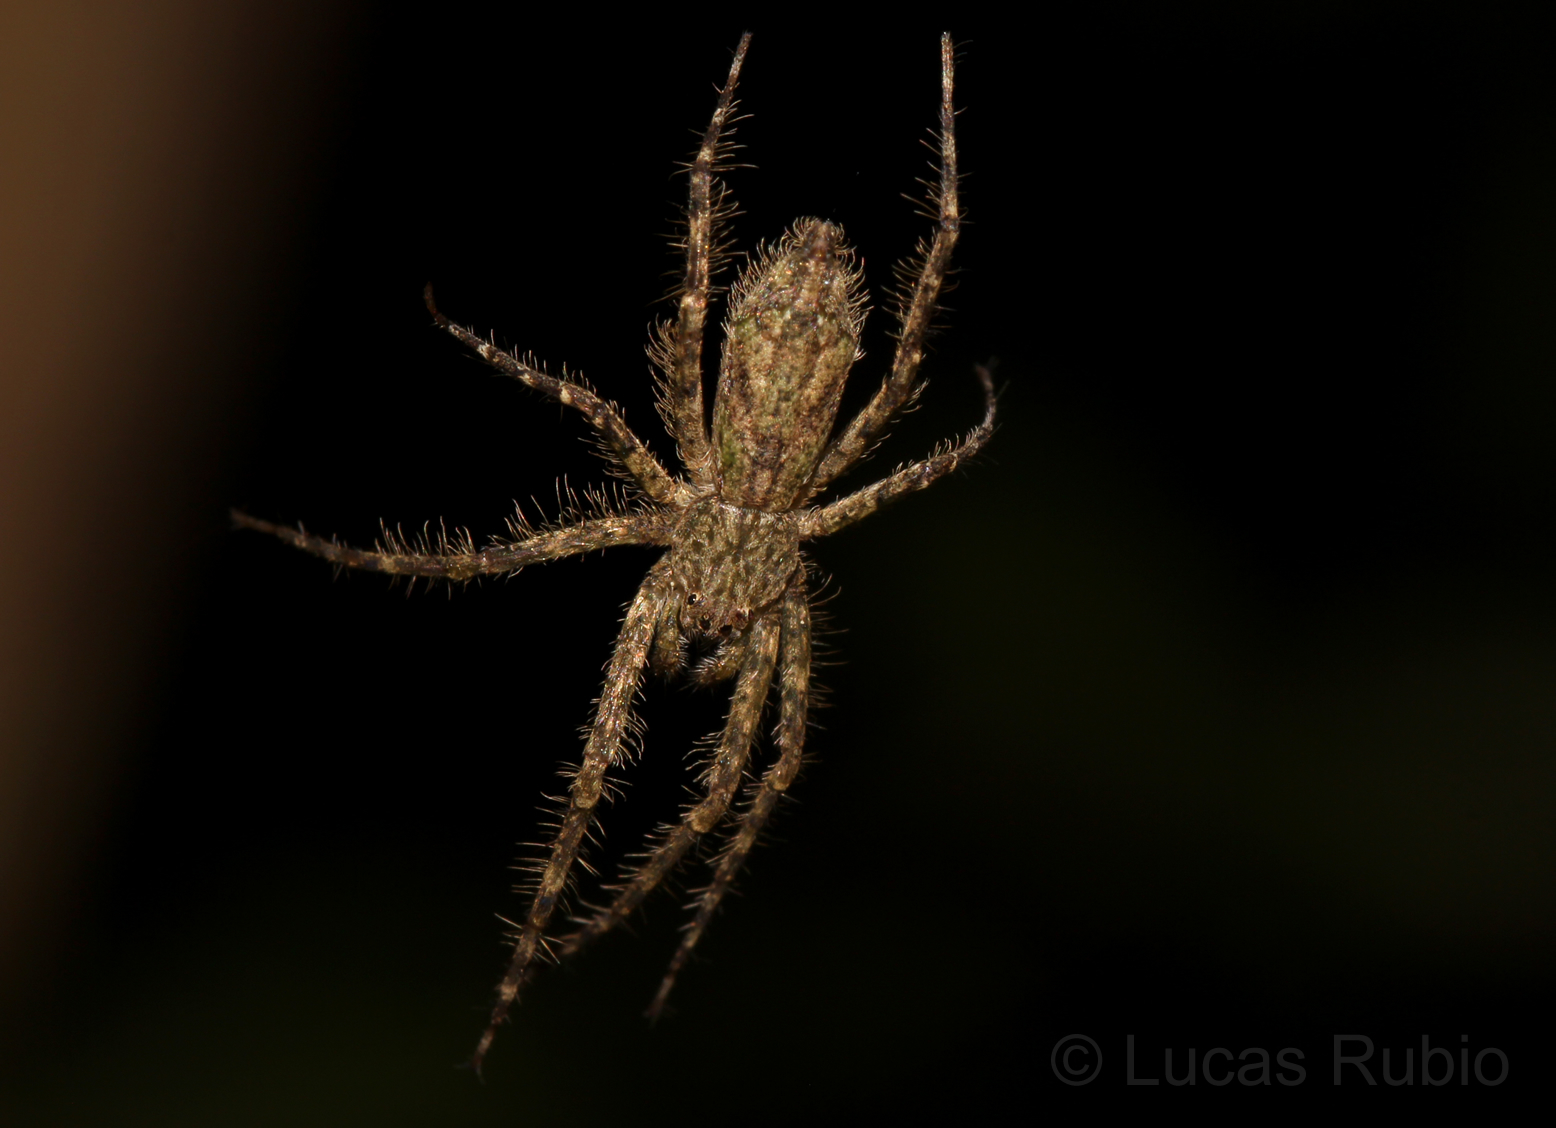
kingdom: Animalia
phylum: Arthropoda
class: Arachnida
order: Araneae
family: Senoculidae
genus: Senoculus
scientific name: Senoculus
